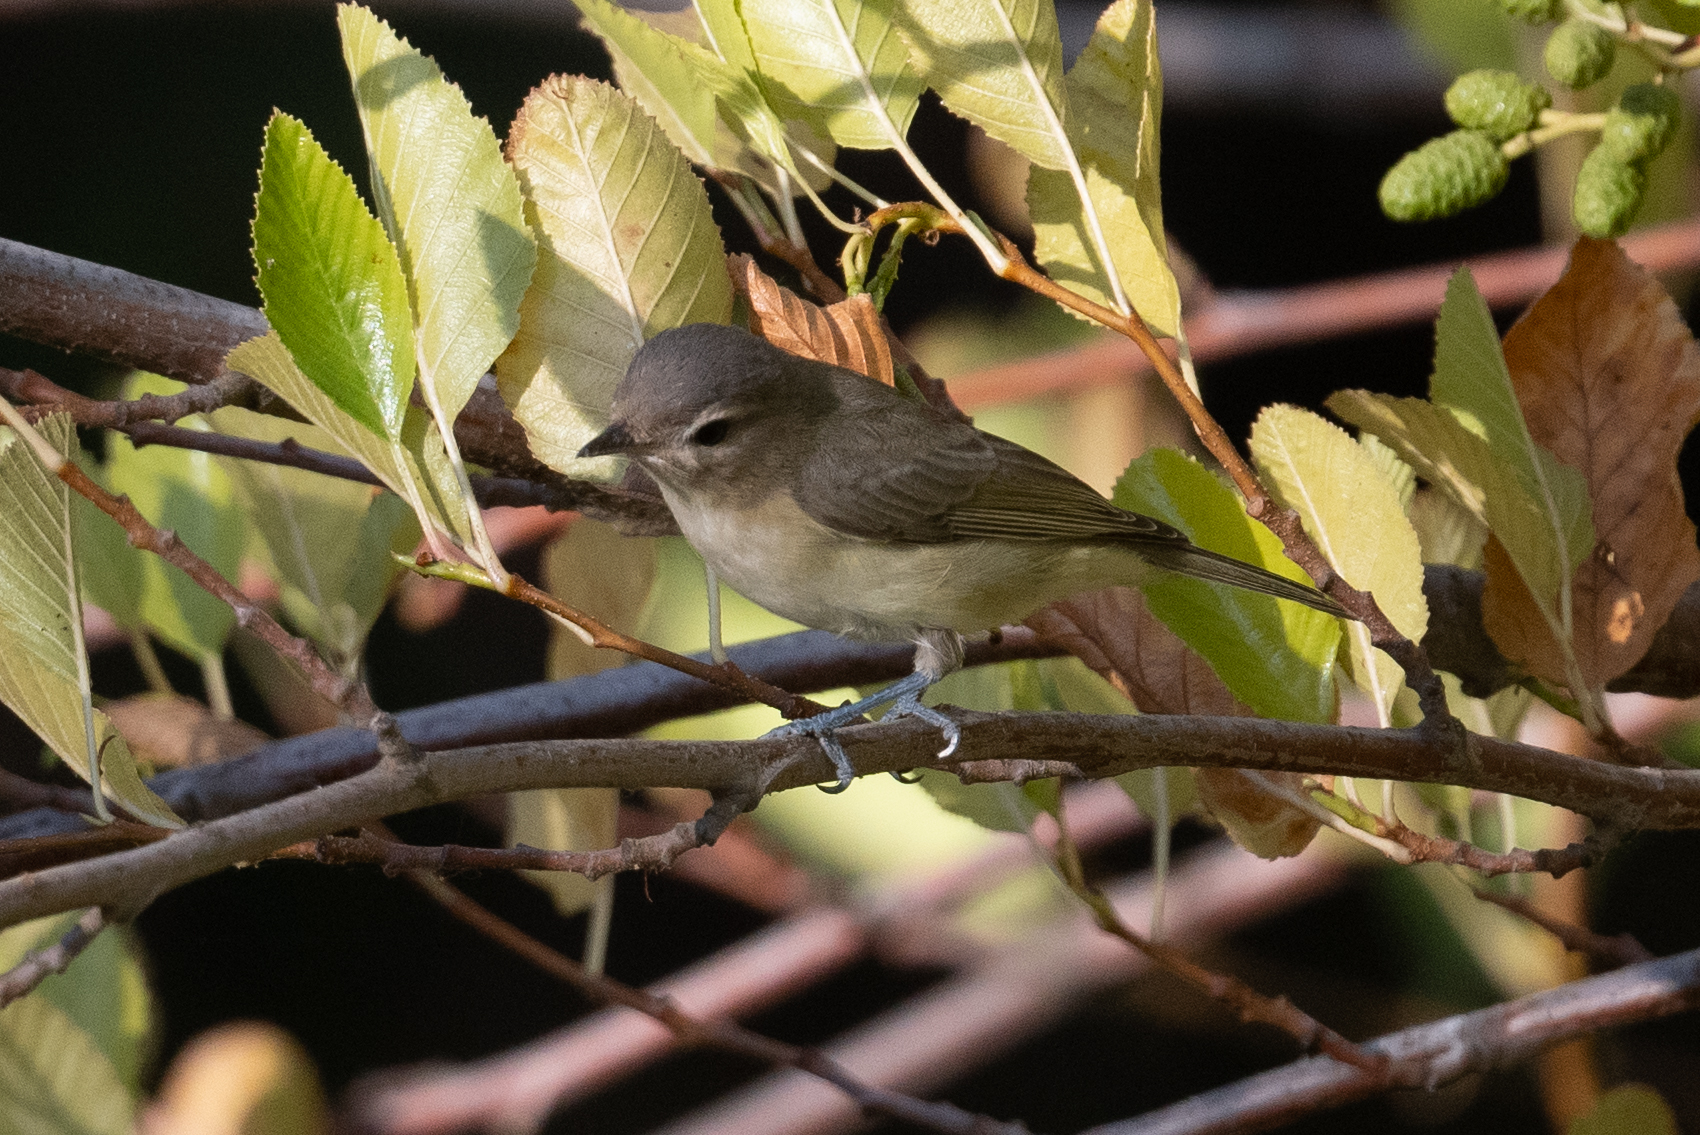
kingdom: Animalia
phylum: Chordata
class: Aves
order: Passeriformes
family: Vireonidae
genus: Vireo
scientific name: Vireo gilvus
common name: Warbling vireo
